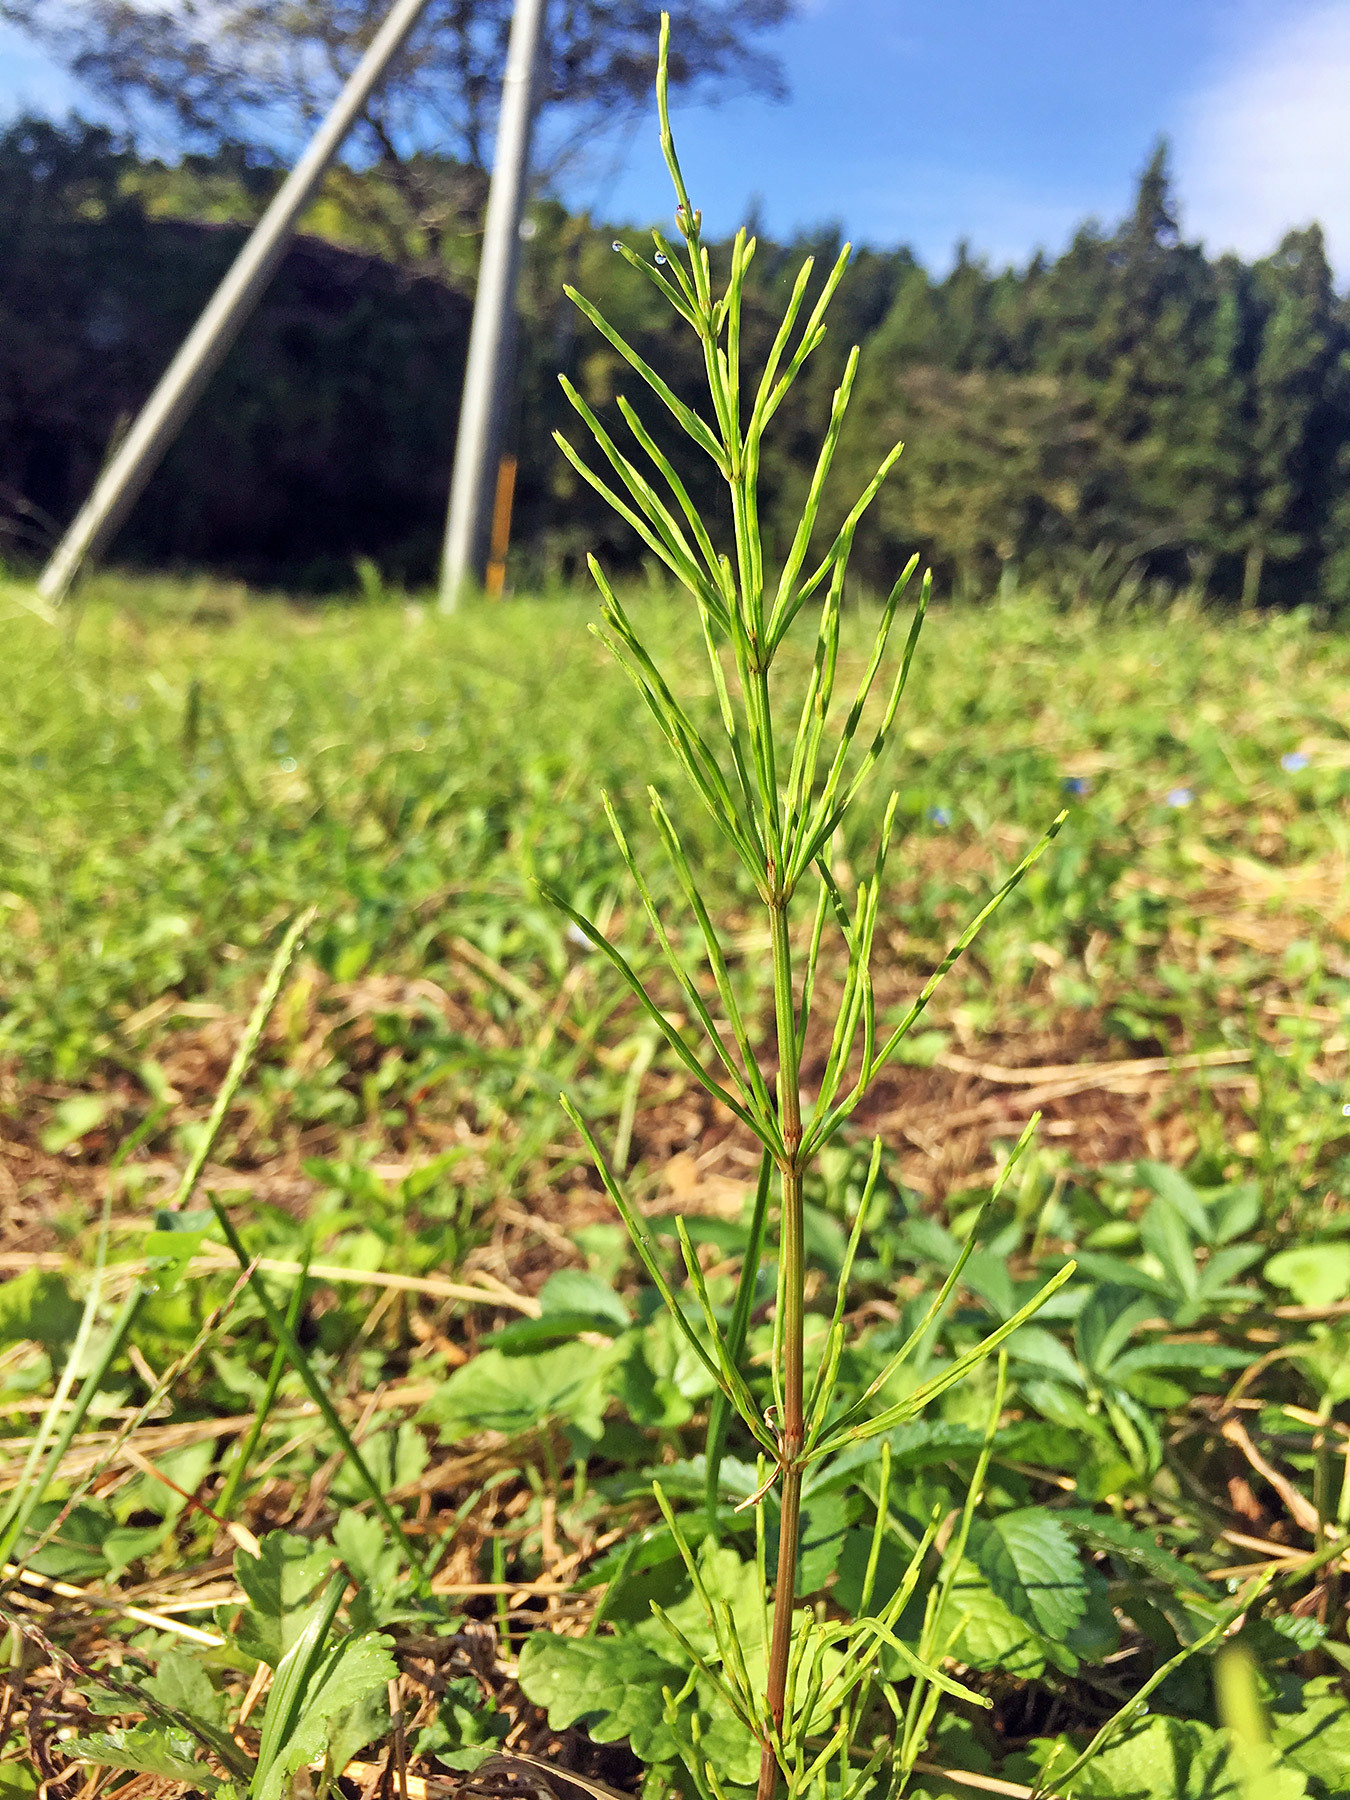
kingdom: Plantae
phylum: Tracheophyta
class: Polypodiopsida
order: Equisetales
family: Equisetaceae
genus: Equisetum
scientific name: Equisetum arvense
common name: Field horsetail
